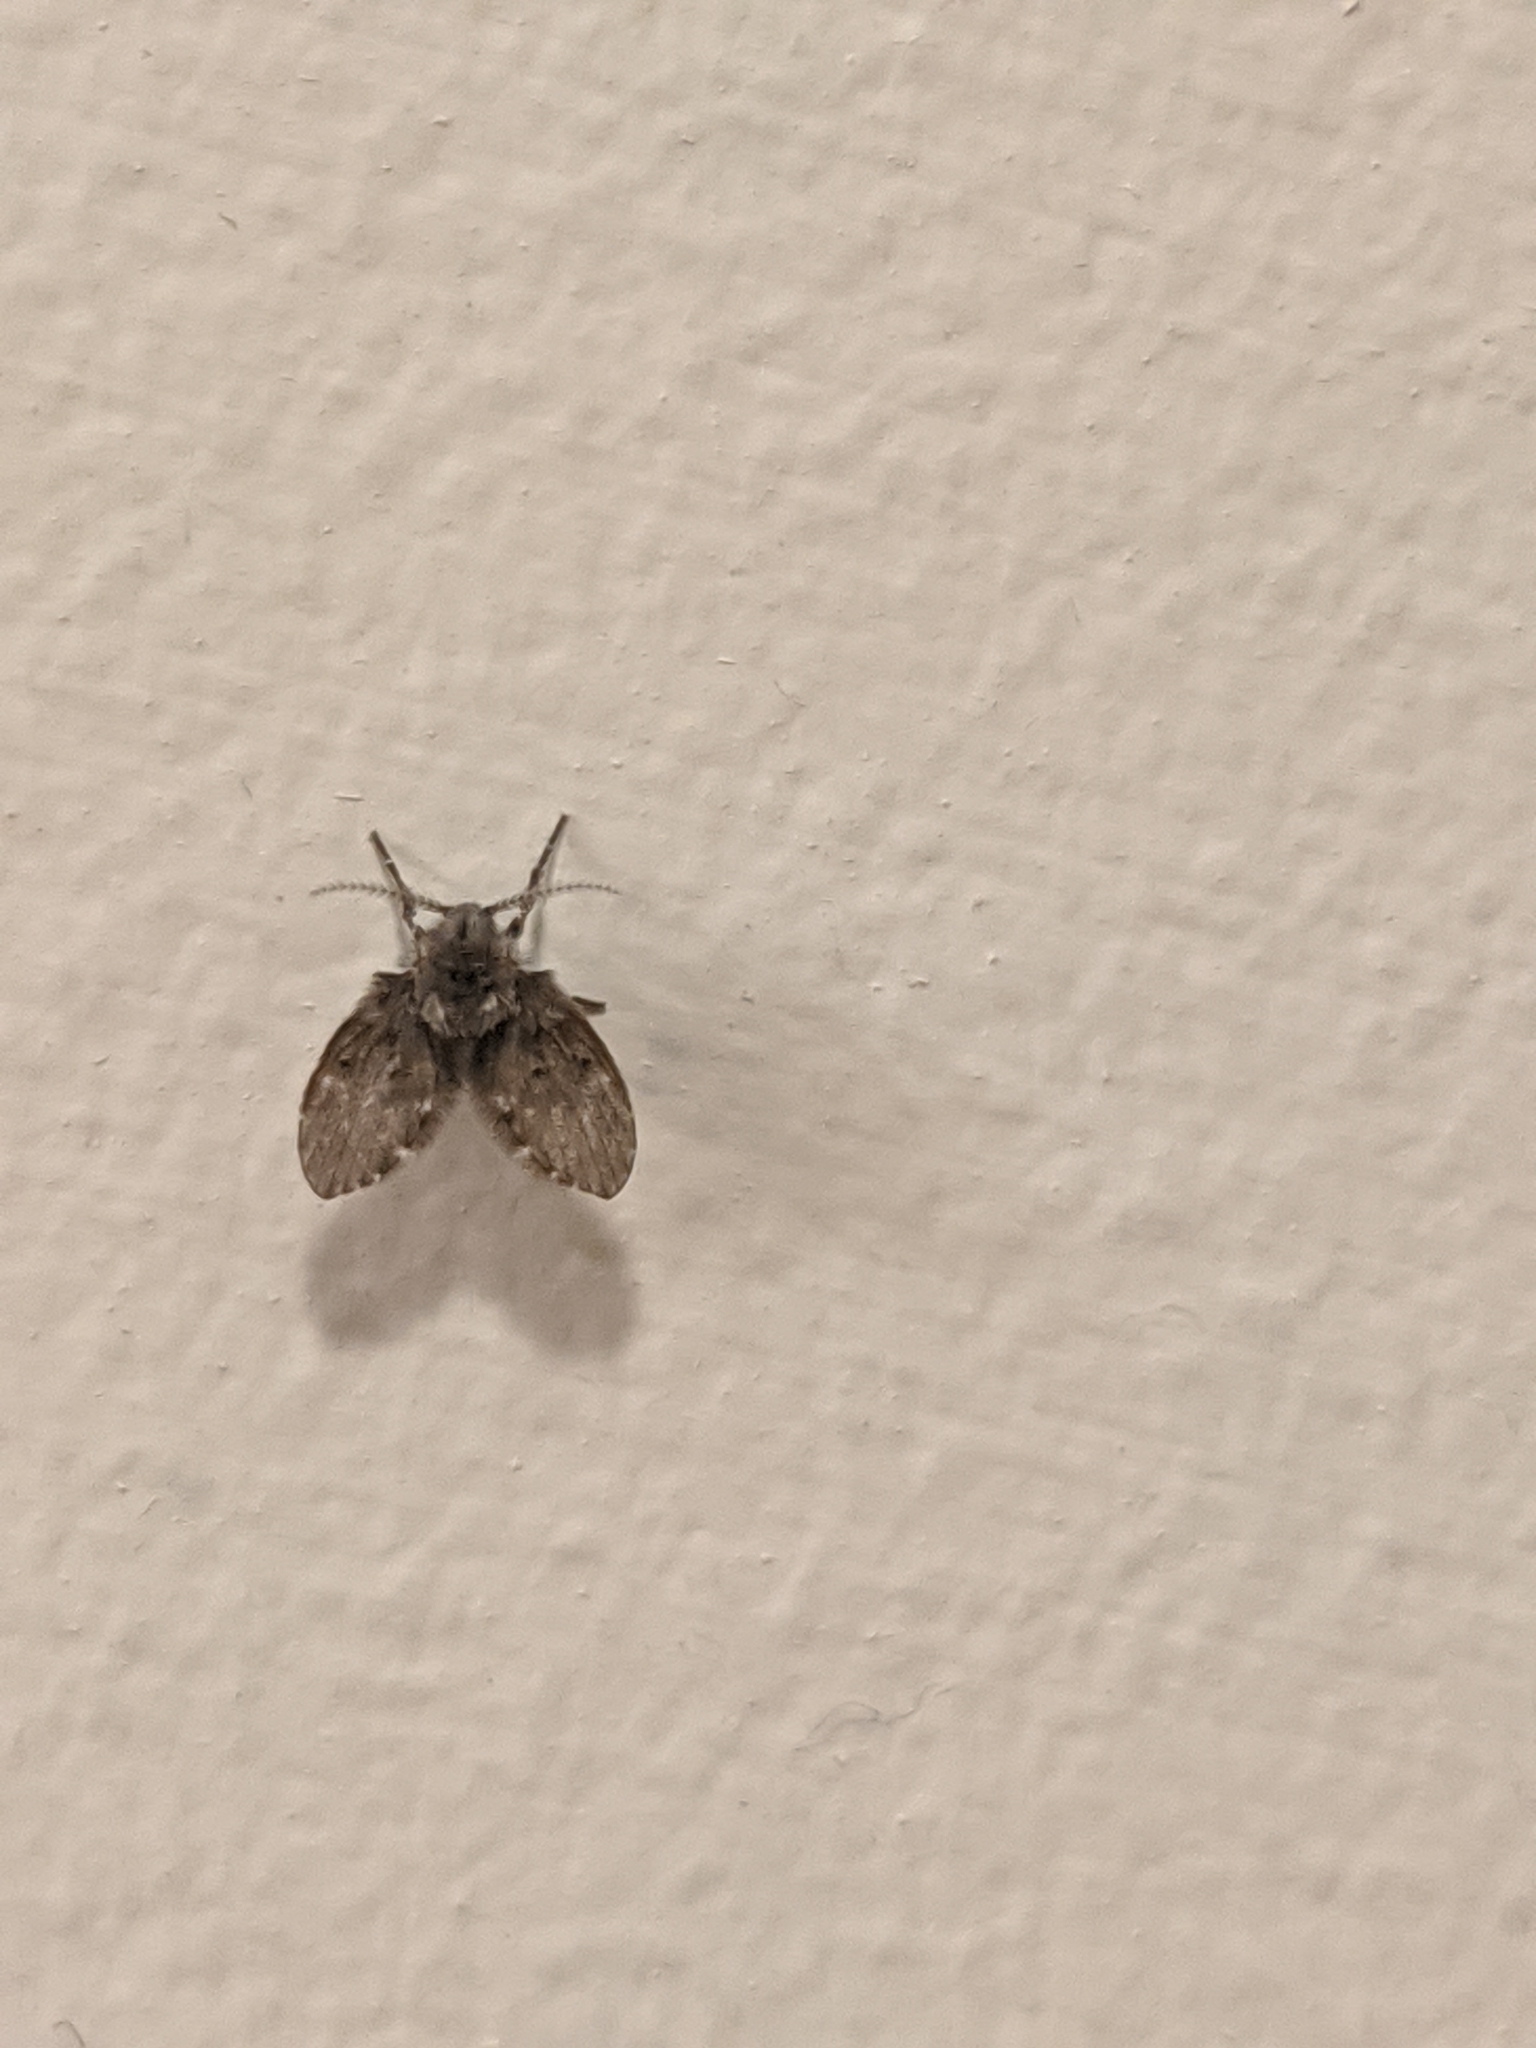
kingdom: Animalia
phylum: Arthropoda
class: Insecta
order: Diptera
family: Psychodidae
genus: Clogmia
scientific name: Clogmia albipunctatus
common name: White-spotted moth fly
